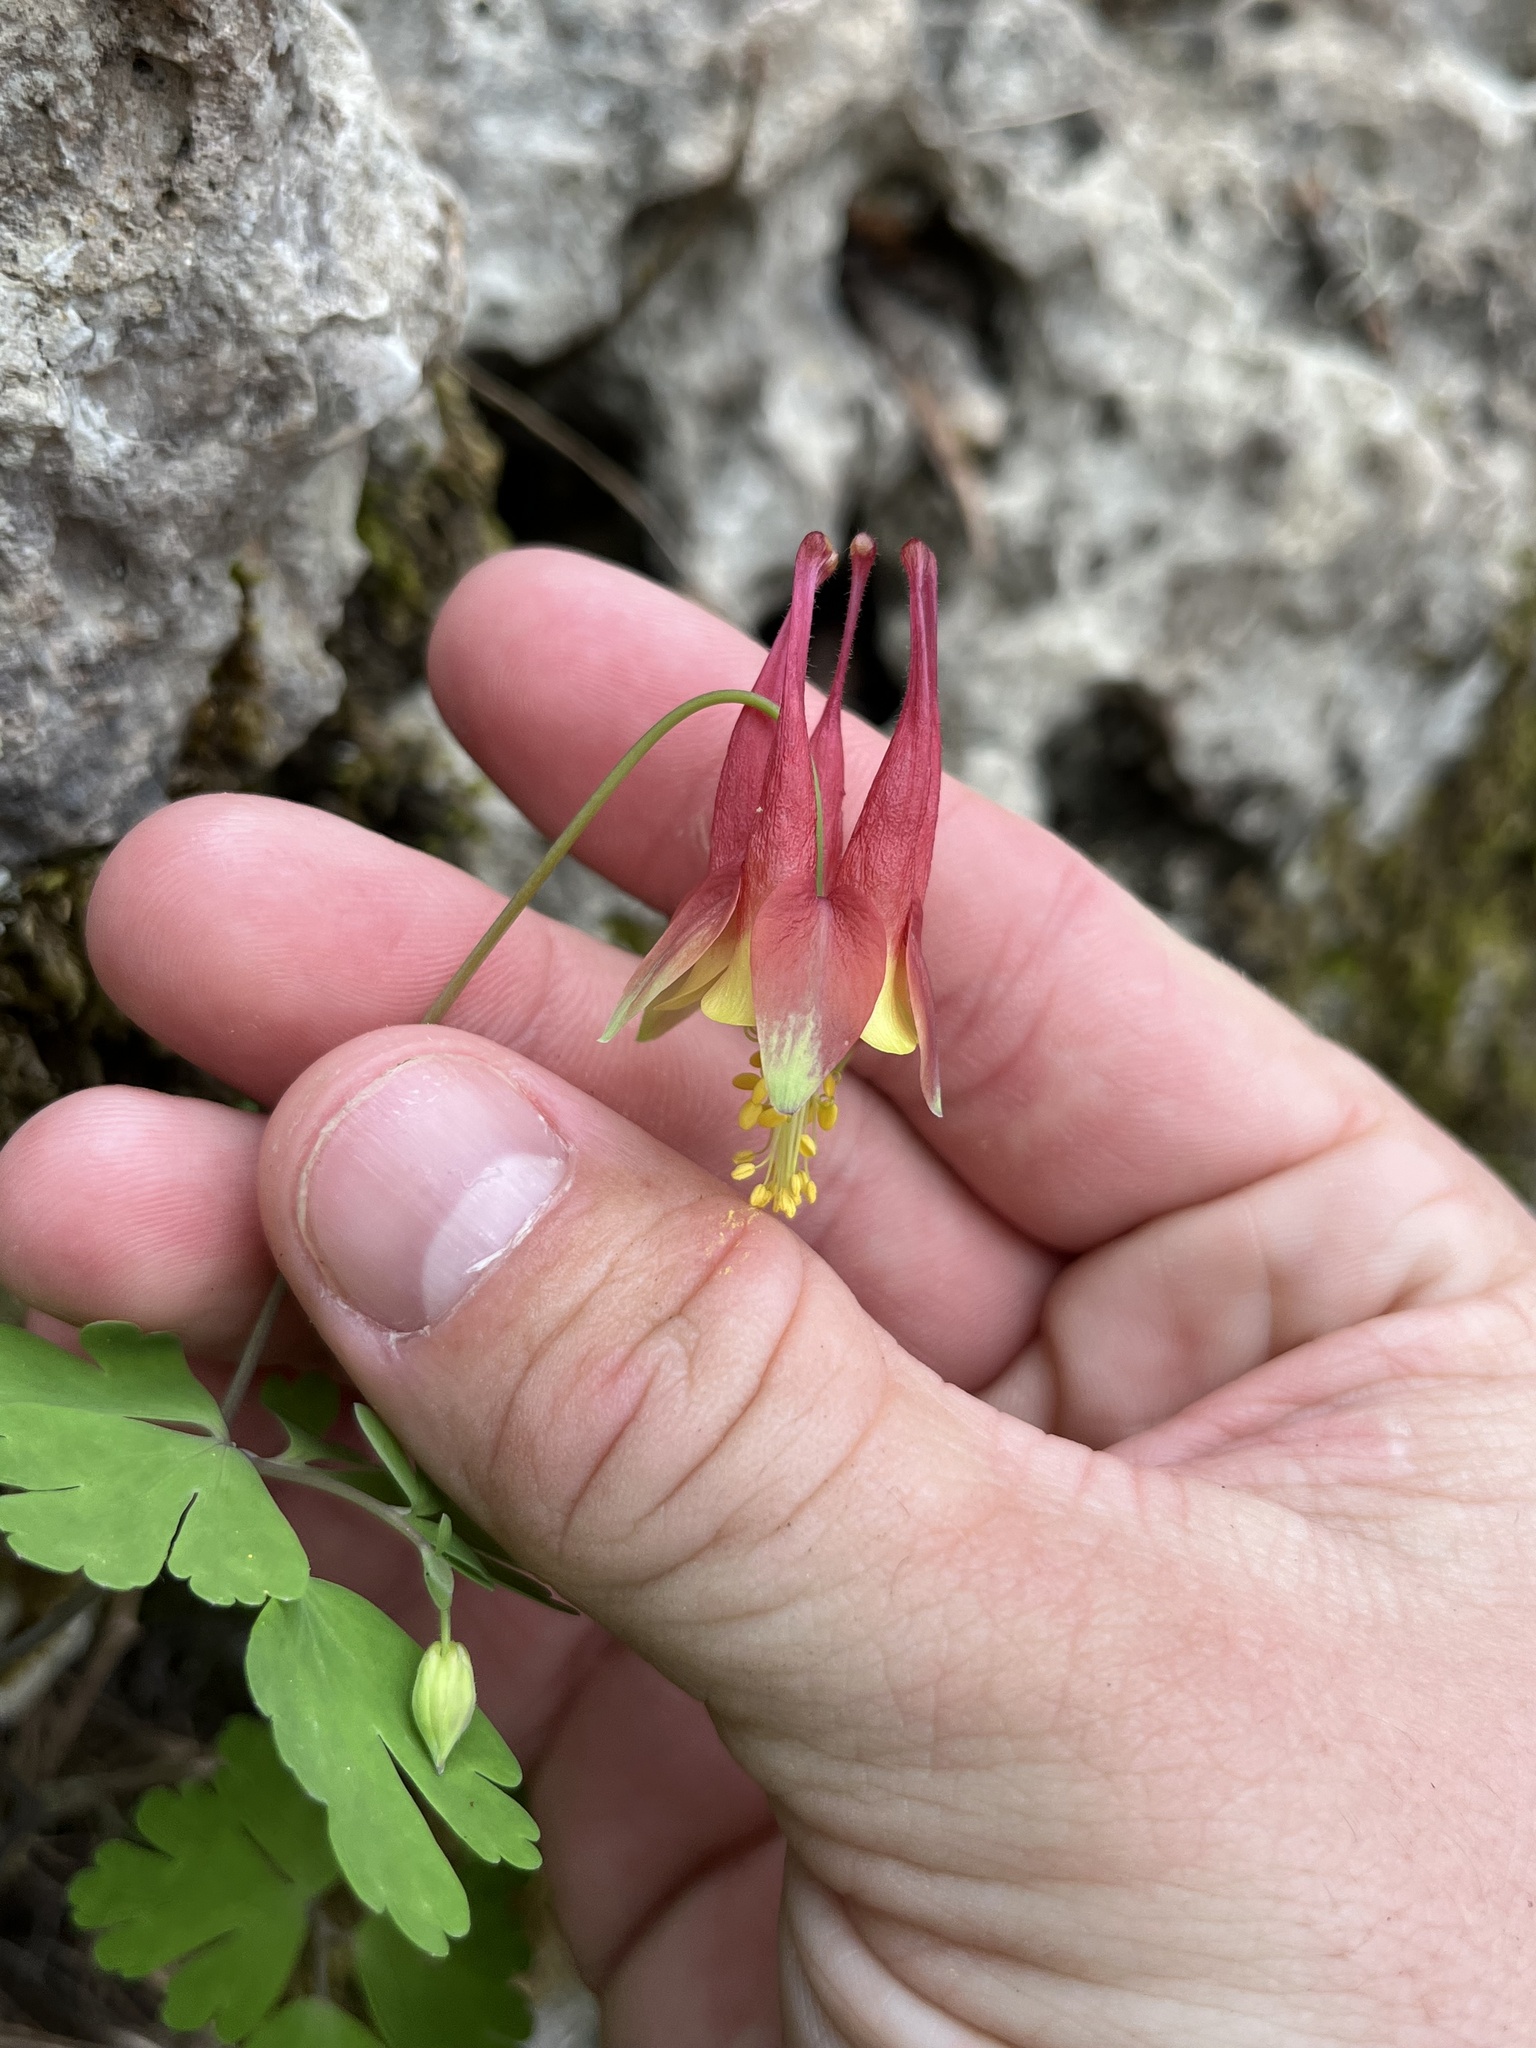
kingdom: Plantae
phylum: Tracheophyta
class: Magnoliopsida
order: Ranunculales
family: Ranunculaceae
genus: Aquilegia
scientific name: Aquilegia canadensis
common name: American columbine
